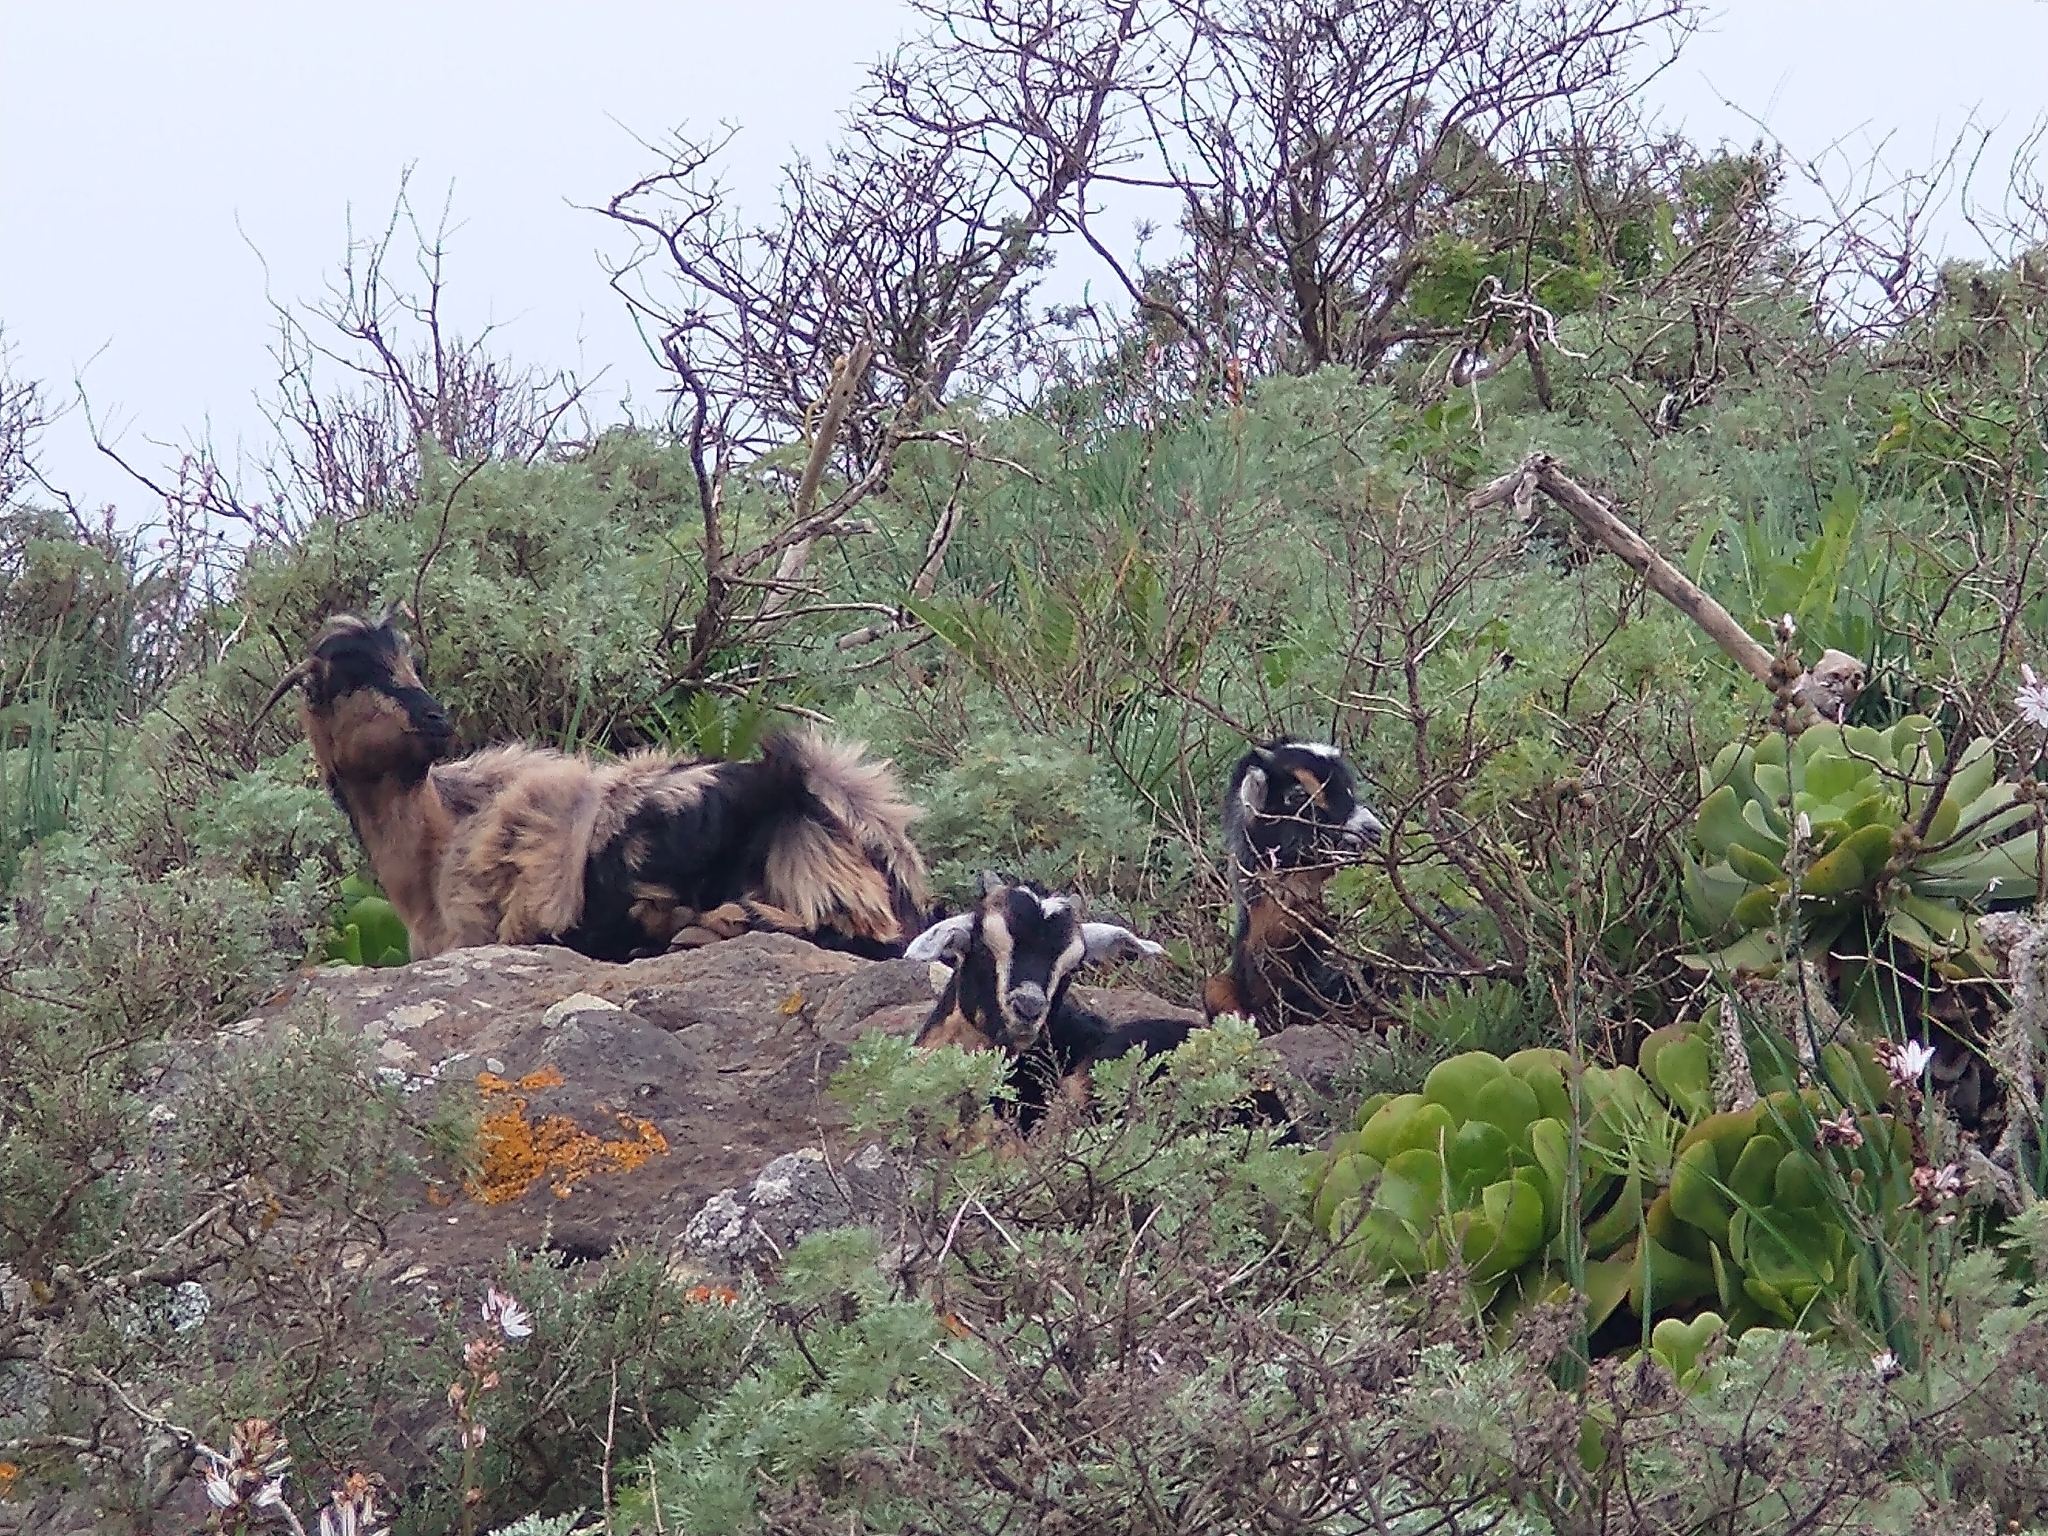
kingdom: Animalia
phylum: Chordata
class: Mammalia
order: Artiodactyla
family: Bovidae
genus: Capra
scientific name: Capra hircus
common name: Domestic goat
